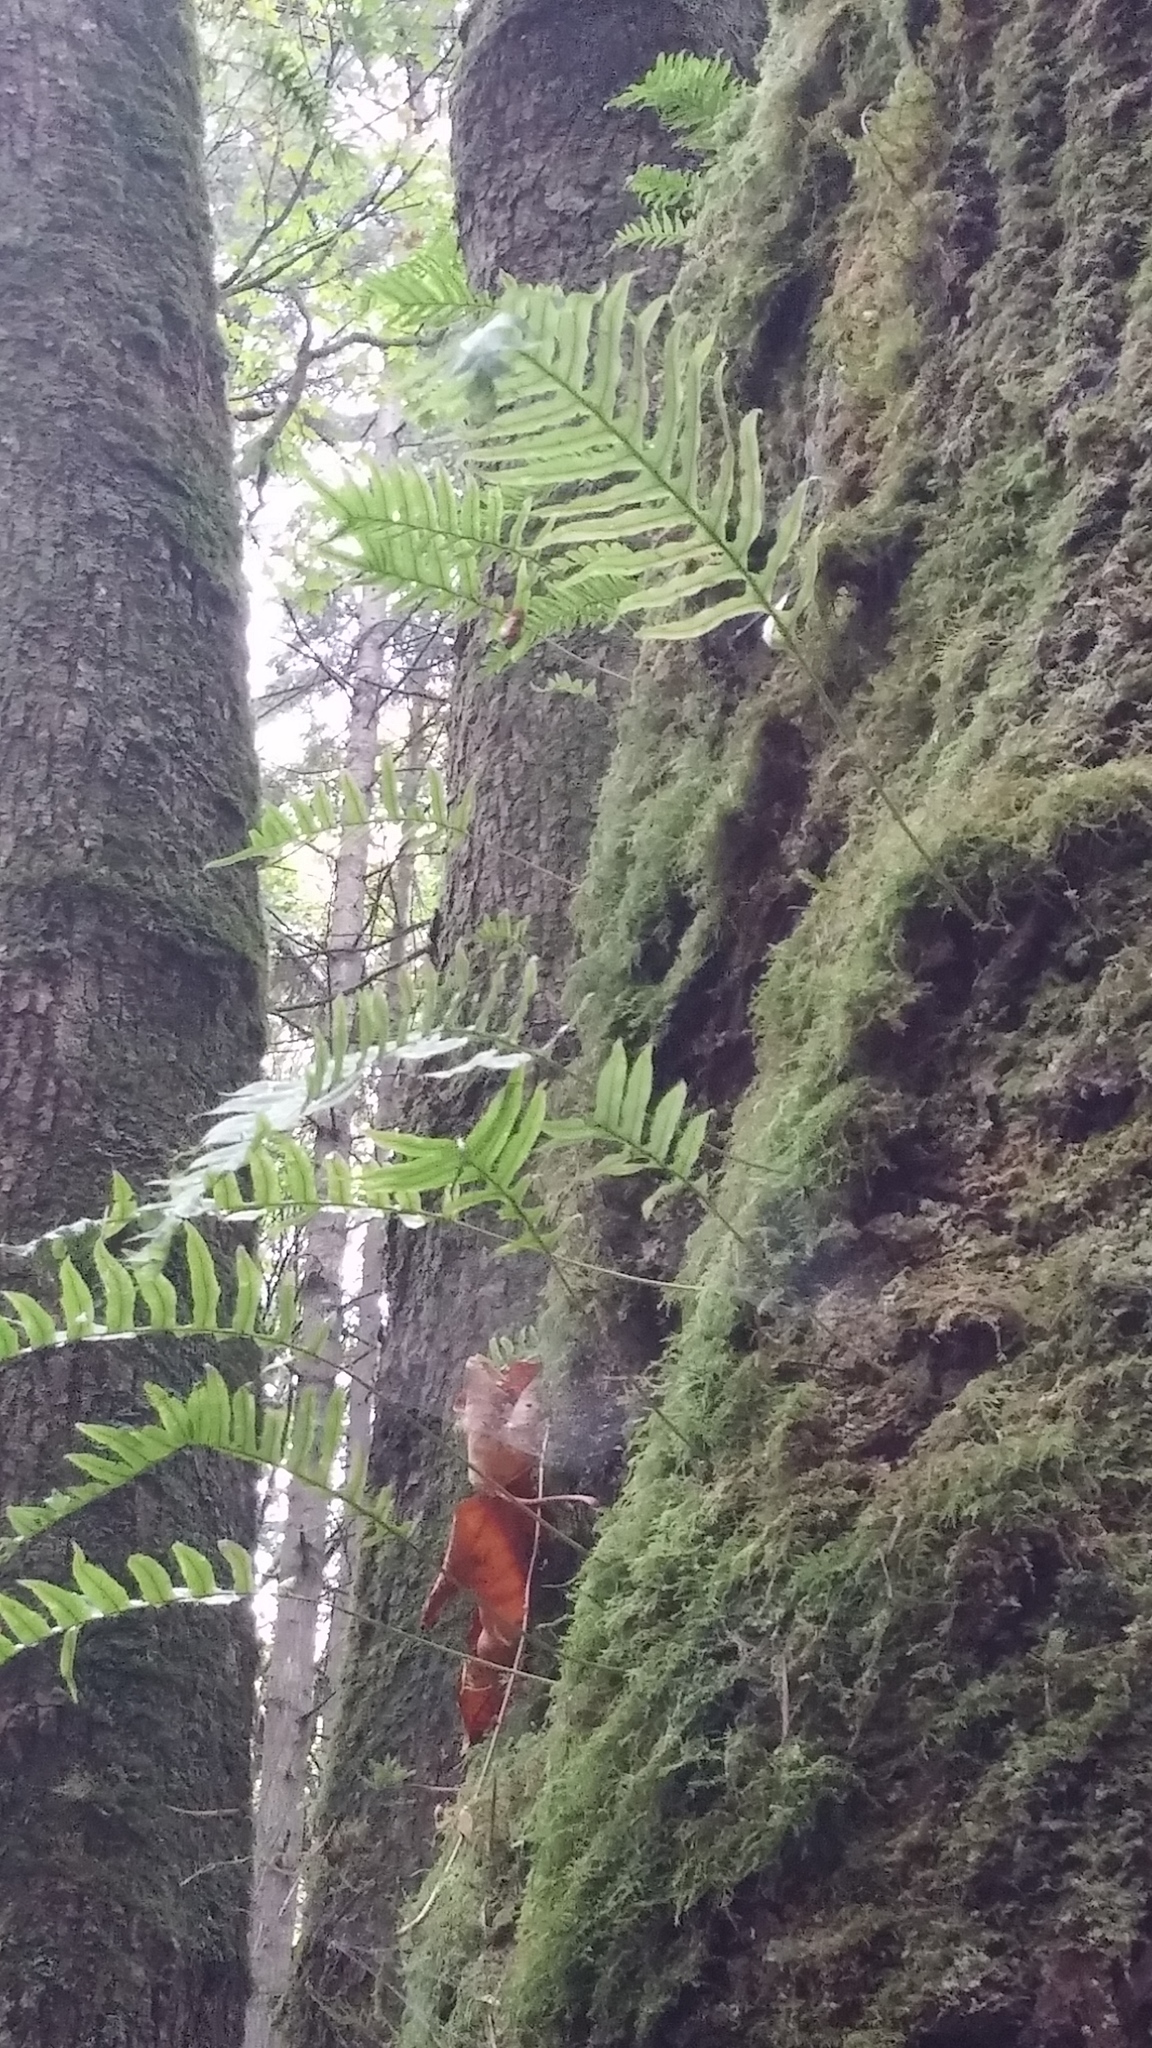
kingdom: Plantae
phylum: Tracheophyta
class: Polypodiopsida
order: Polypodiales
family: Polypodiaceae
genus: Polypodium
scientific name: Polypodium glycyrrhiza
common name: Licorice fern
